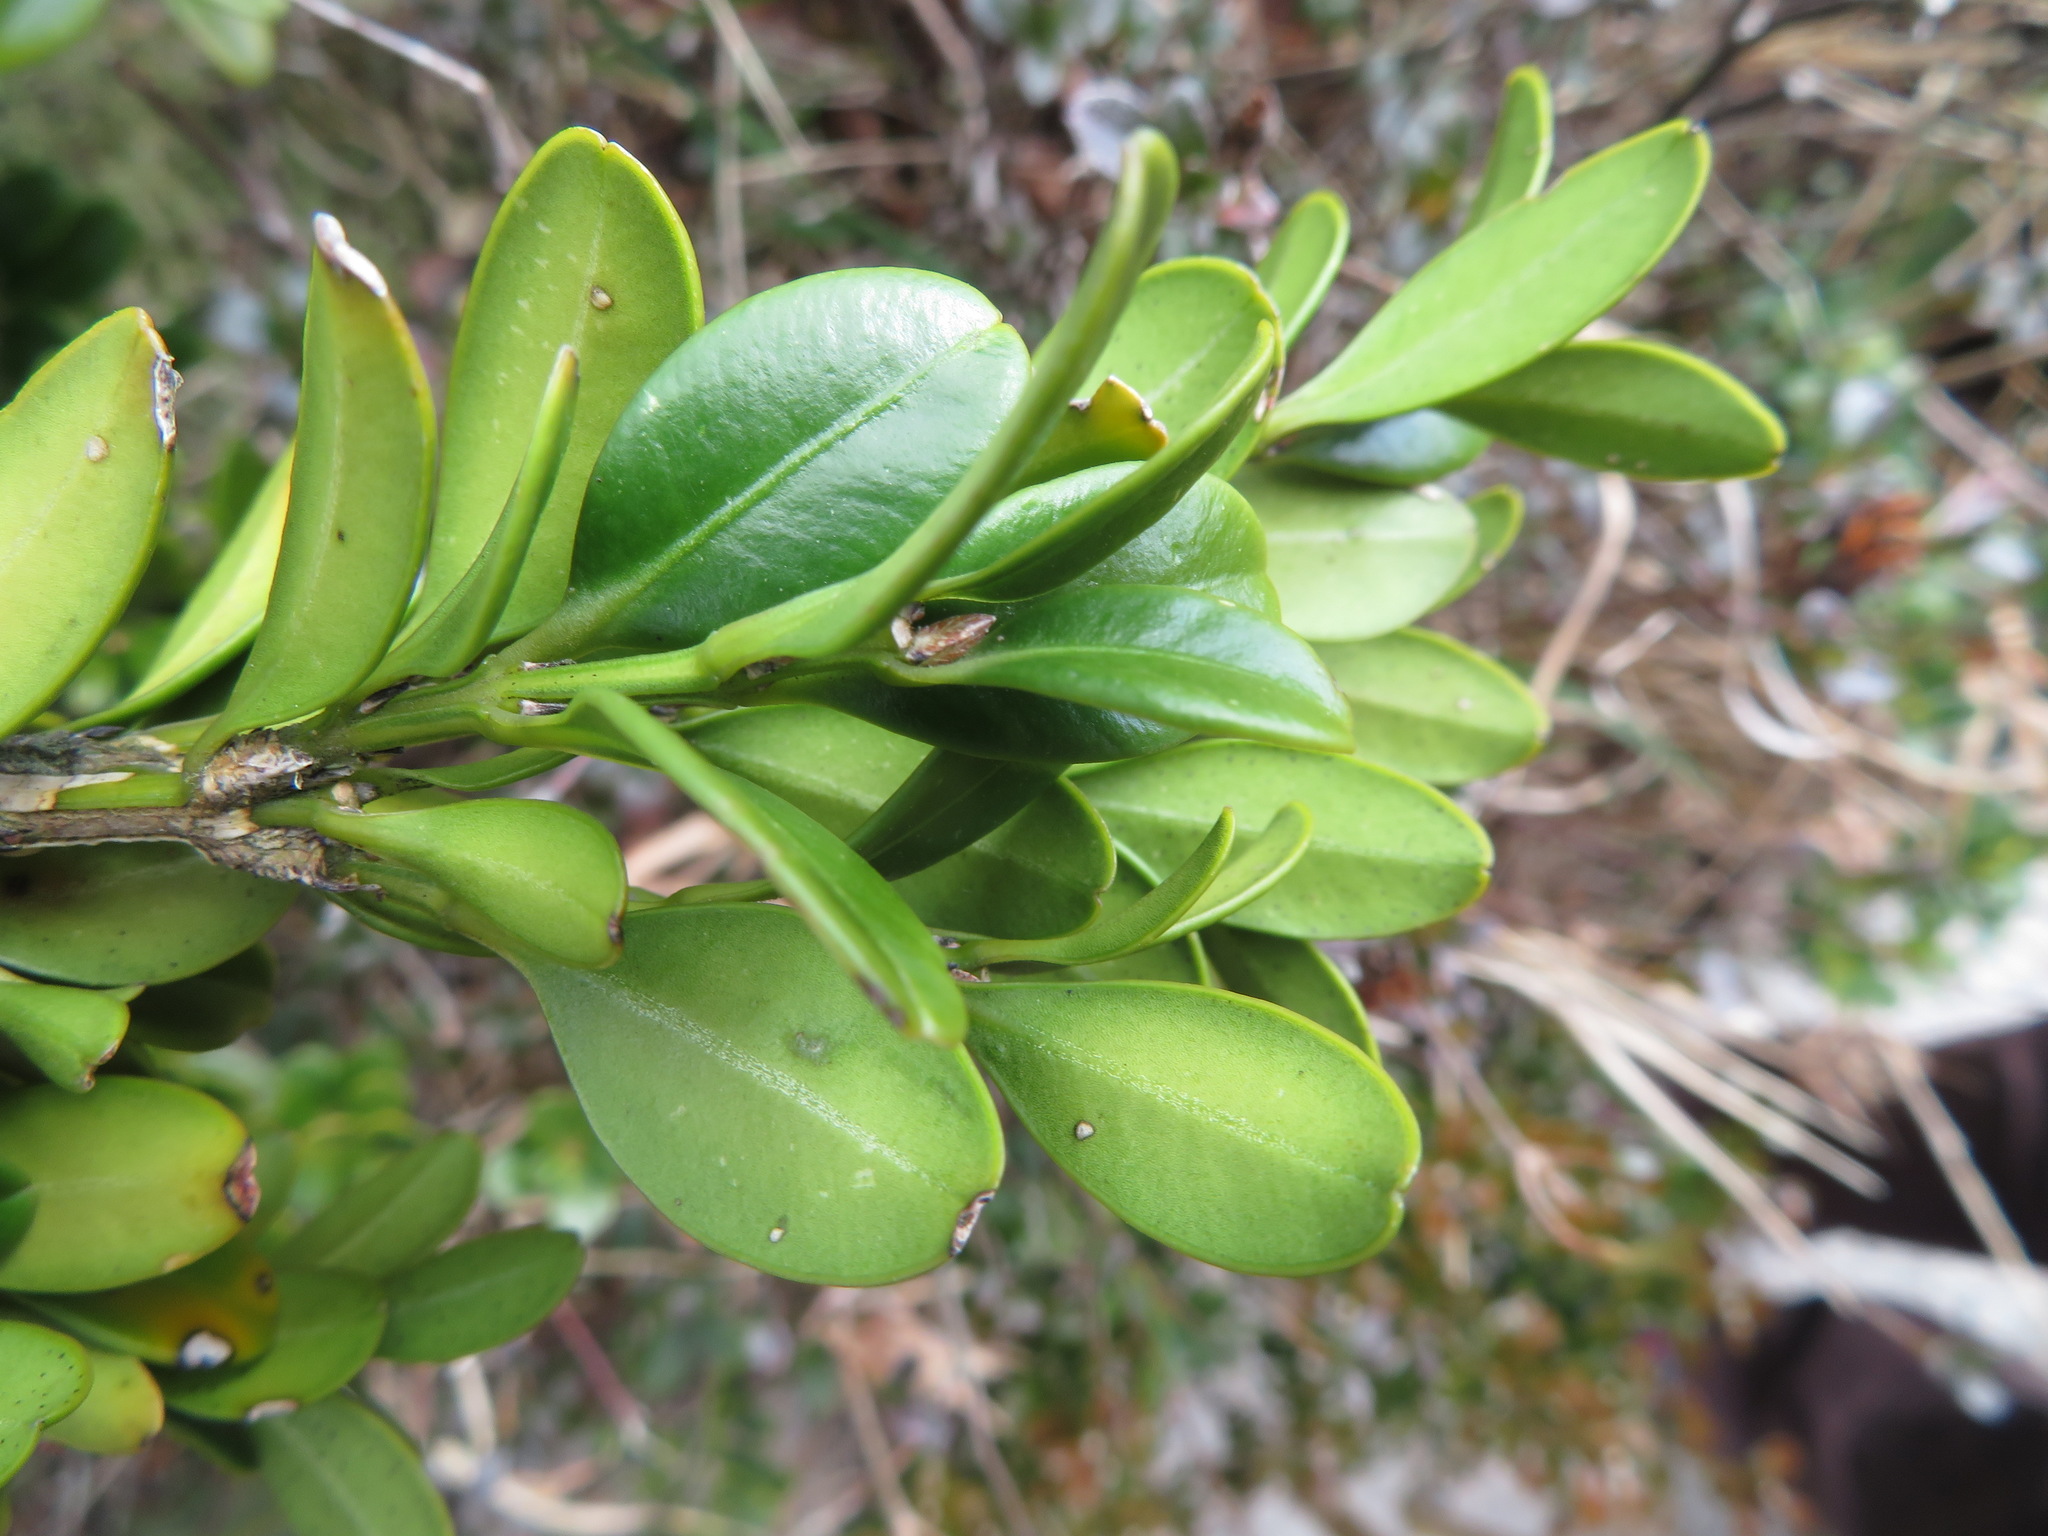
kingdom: Plantae
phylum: Tracheophyta
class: Magnoliopsida
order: Buxales
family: Buxaceae
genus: Buxus
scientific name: Buxus microphylla
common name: Littleleaf boxwood
